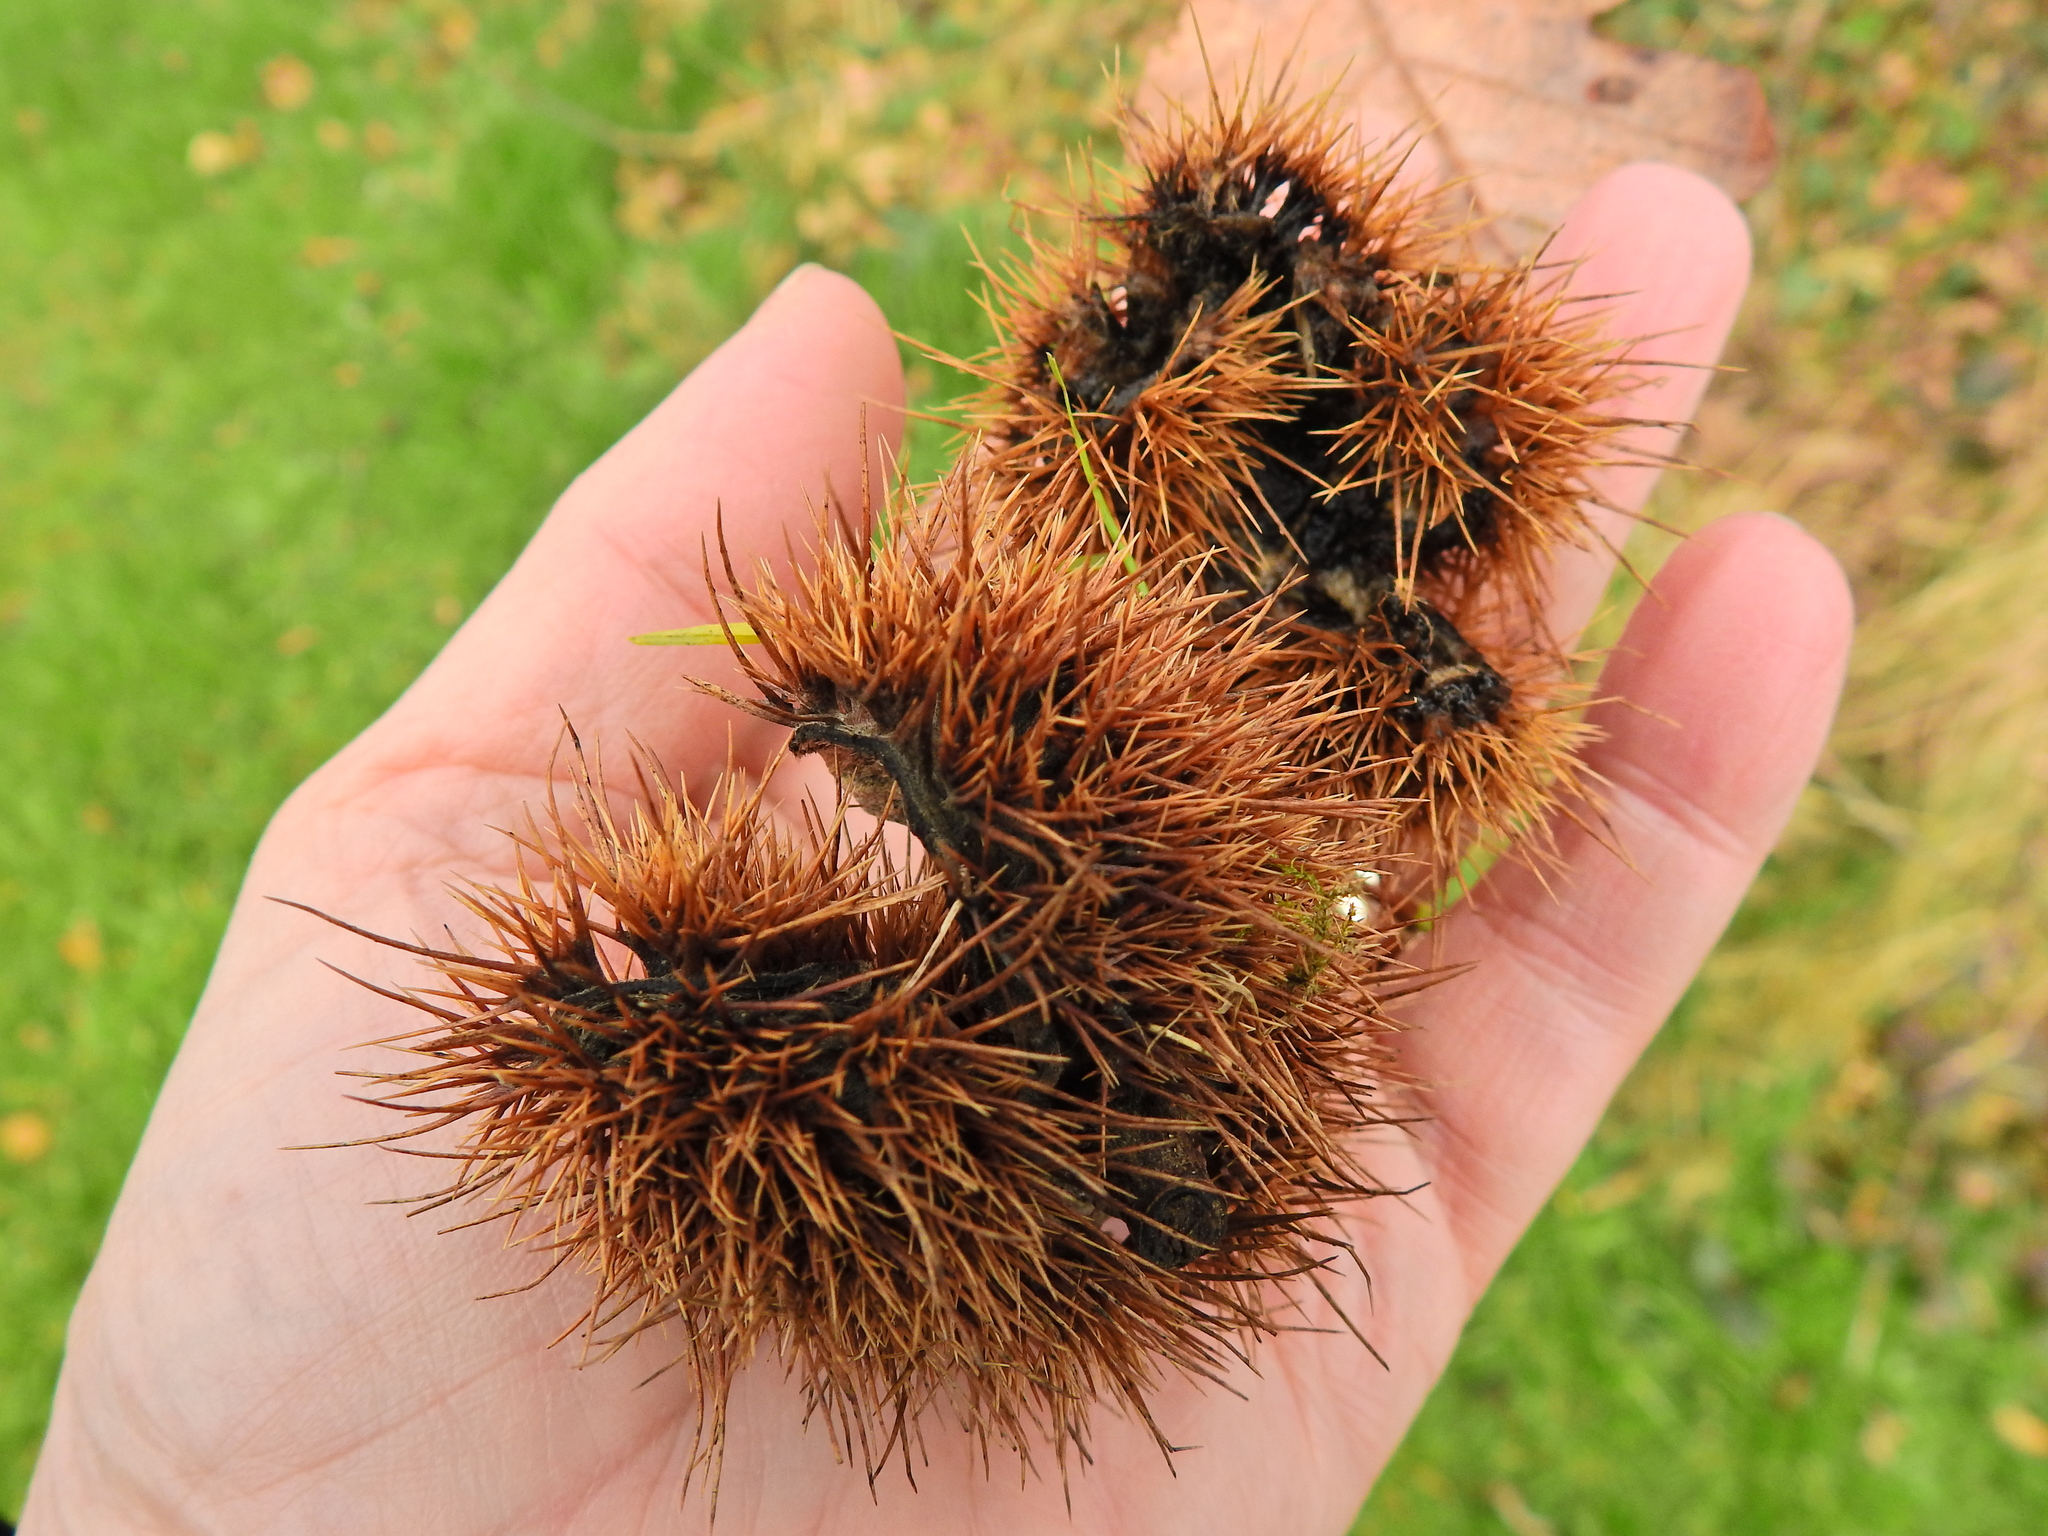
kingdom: Plantae
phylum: Tracheophyta
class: Magnoliopsida
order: Fagales
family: Fagaceae
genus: Castanea
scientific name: Castanea sativa
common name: Sweet chestnut
